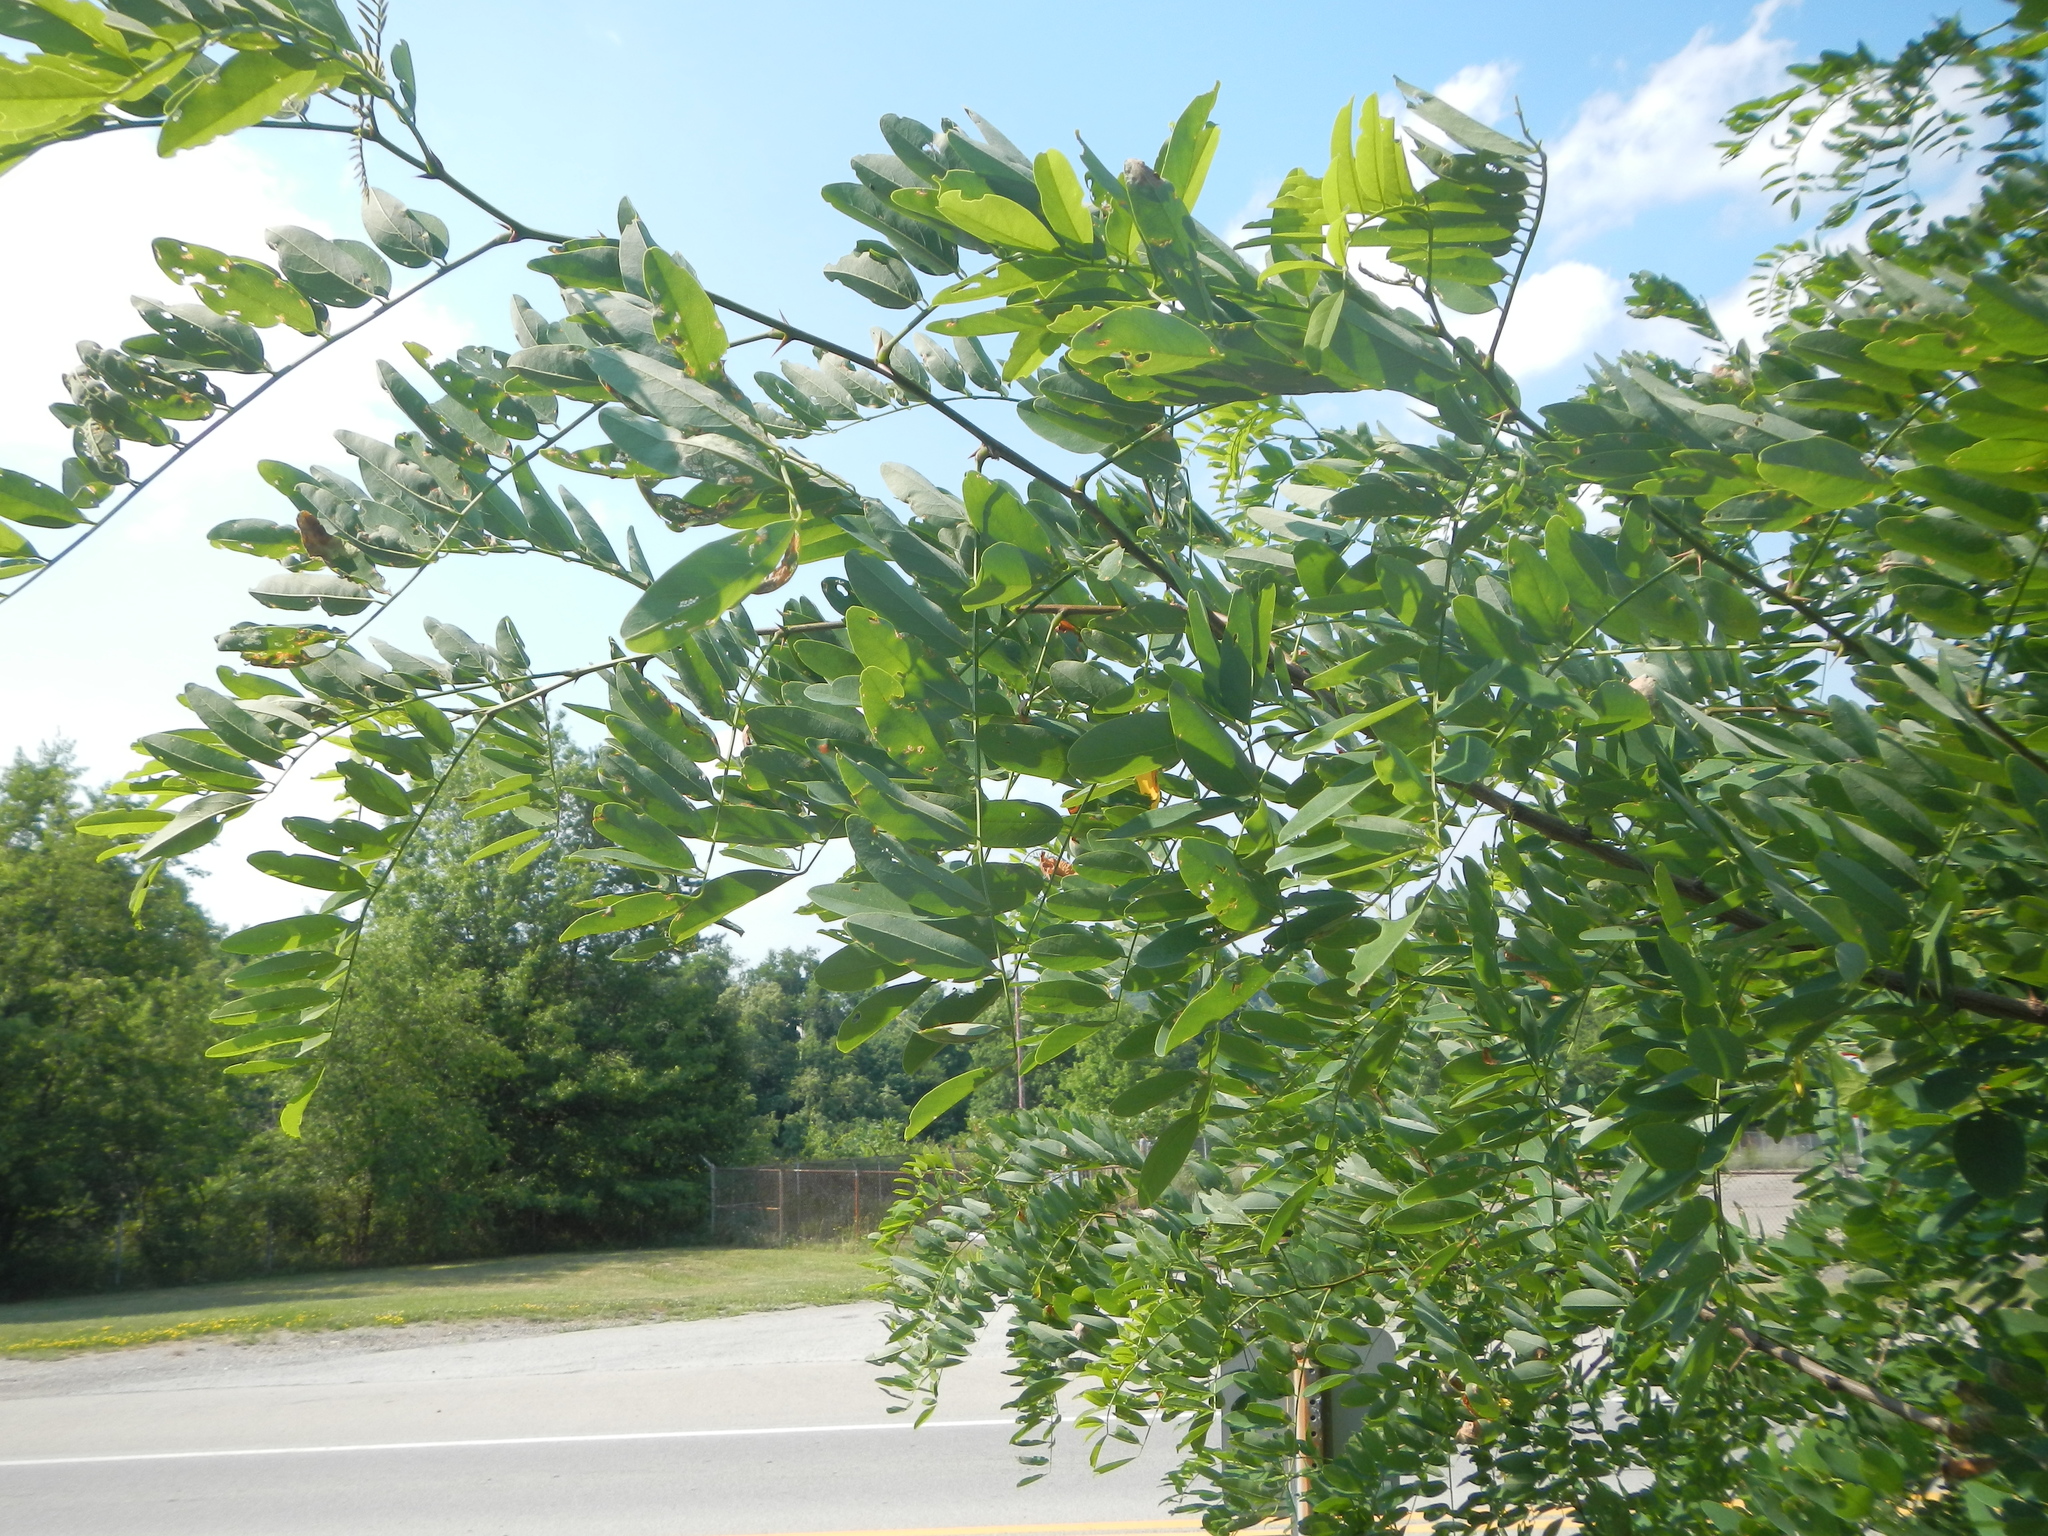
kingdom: Plantae
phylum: Tracheophyta
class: Magnoliopsida
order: Fabales
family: Fabaceae
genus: Robinia
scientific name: Robinia pseudoacacia
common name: Black locust
